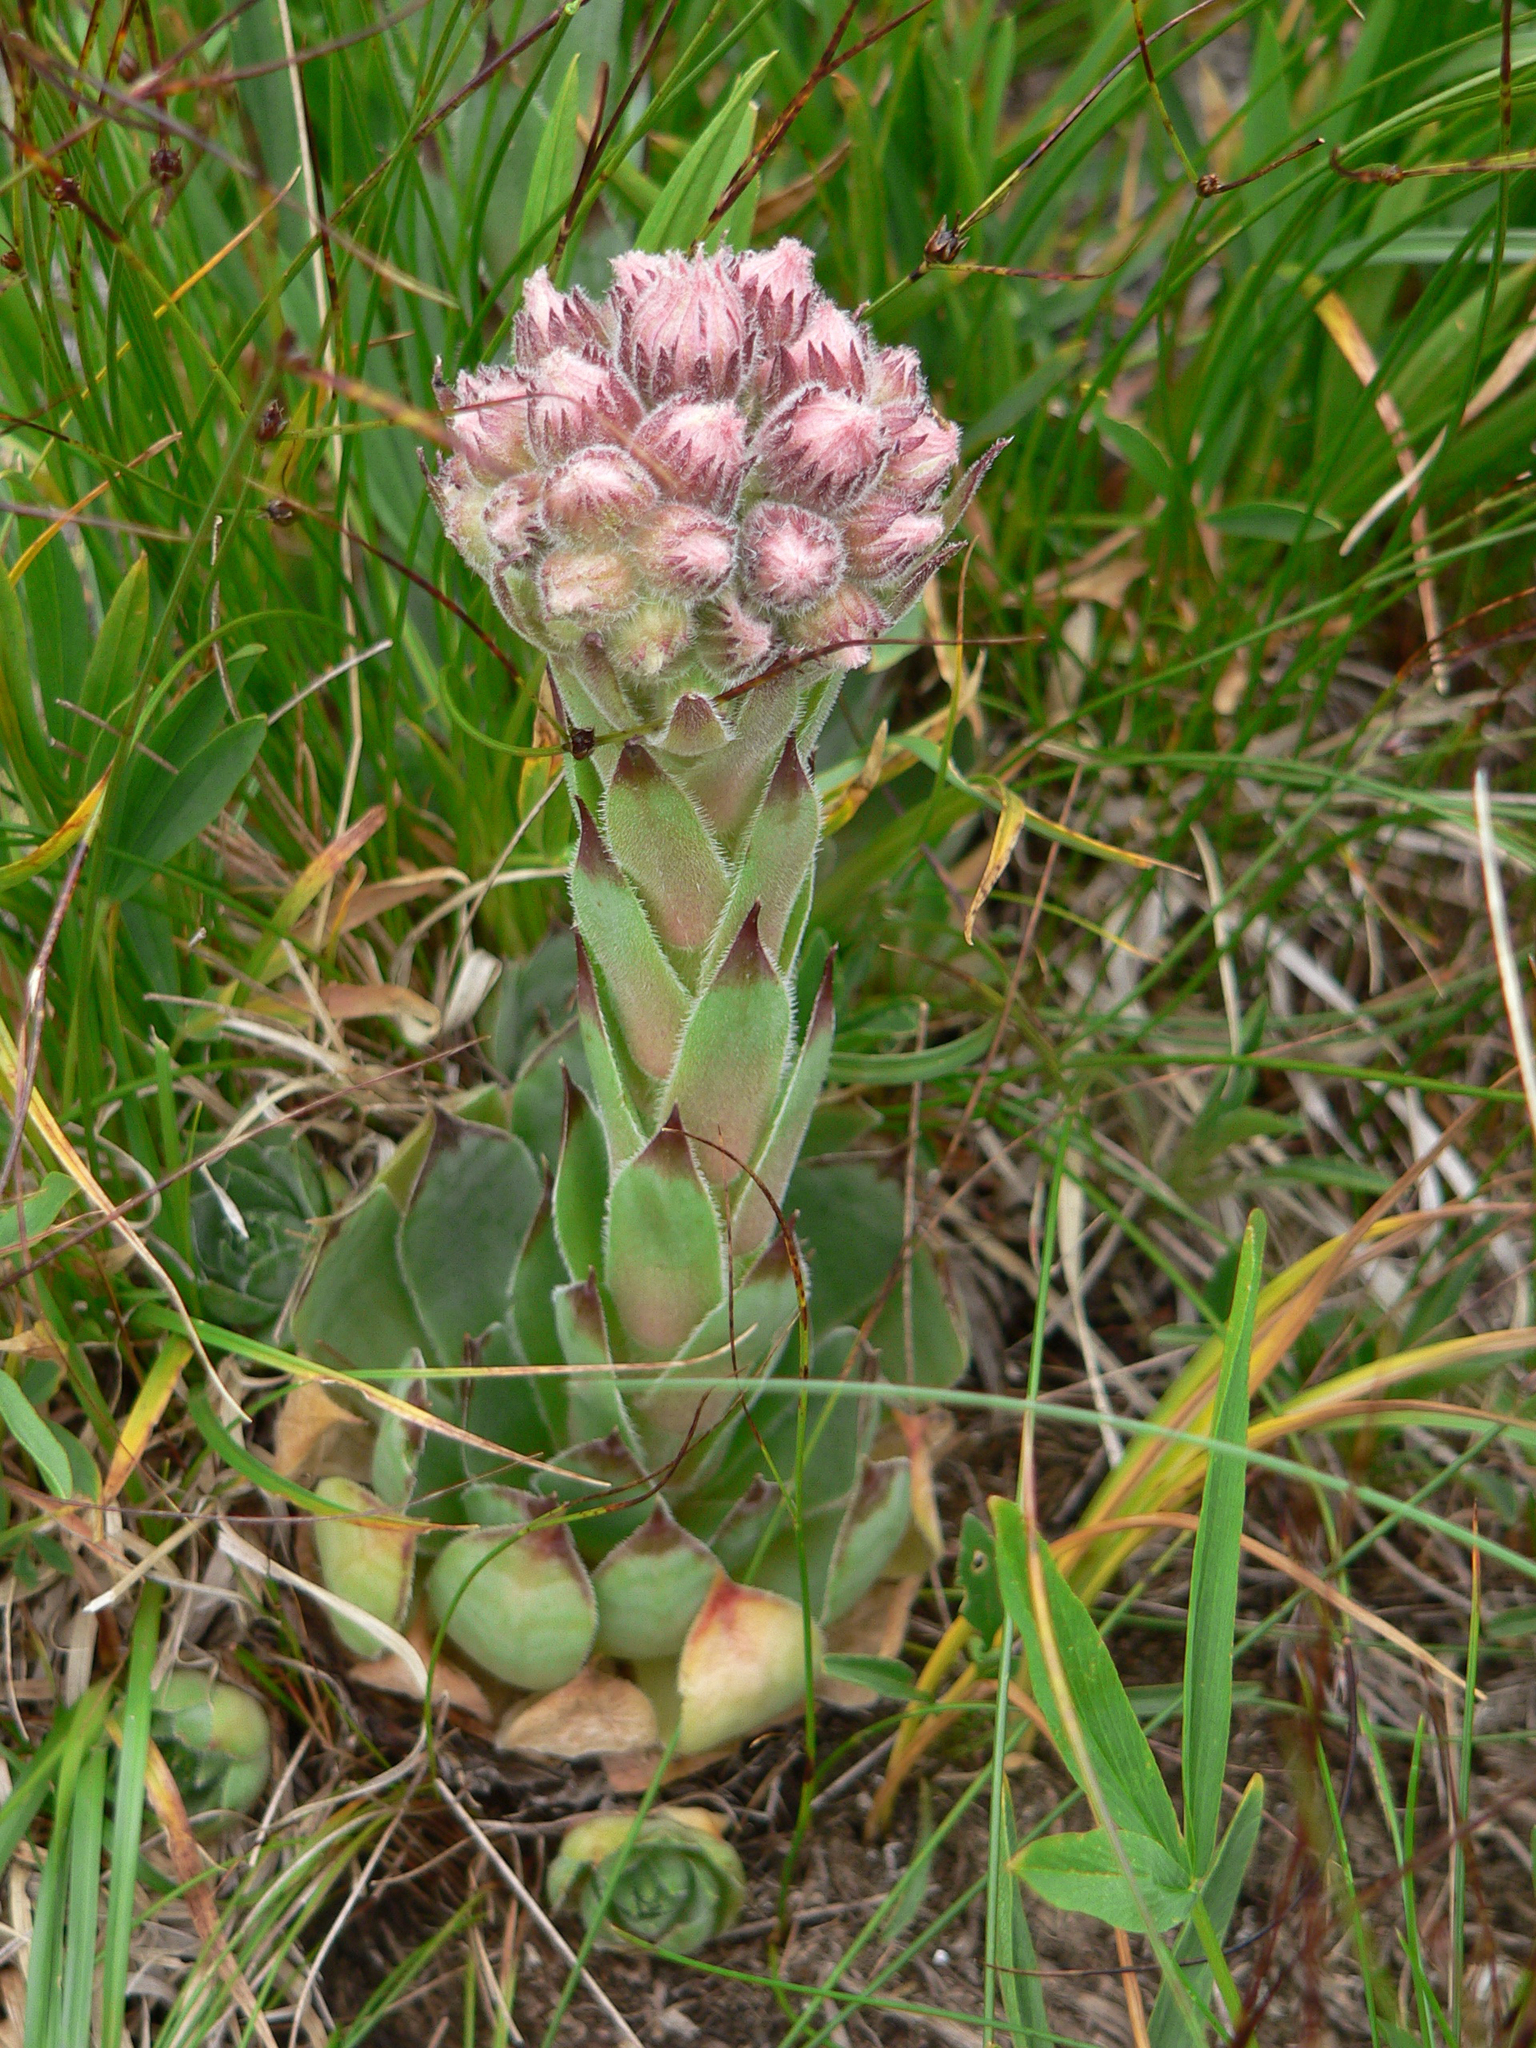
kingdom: Plantae
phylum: Tracheophyta
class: Magnoliopsida
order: Saxifragales
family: Crassulaceae
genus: Sempervivum
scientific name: Sempervivum tectorum
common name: House-leek
